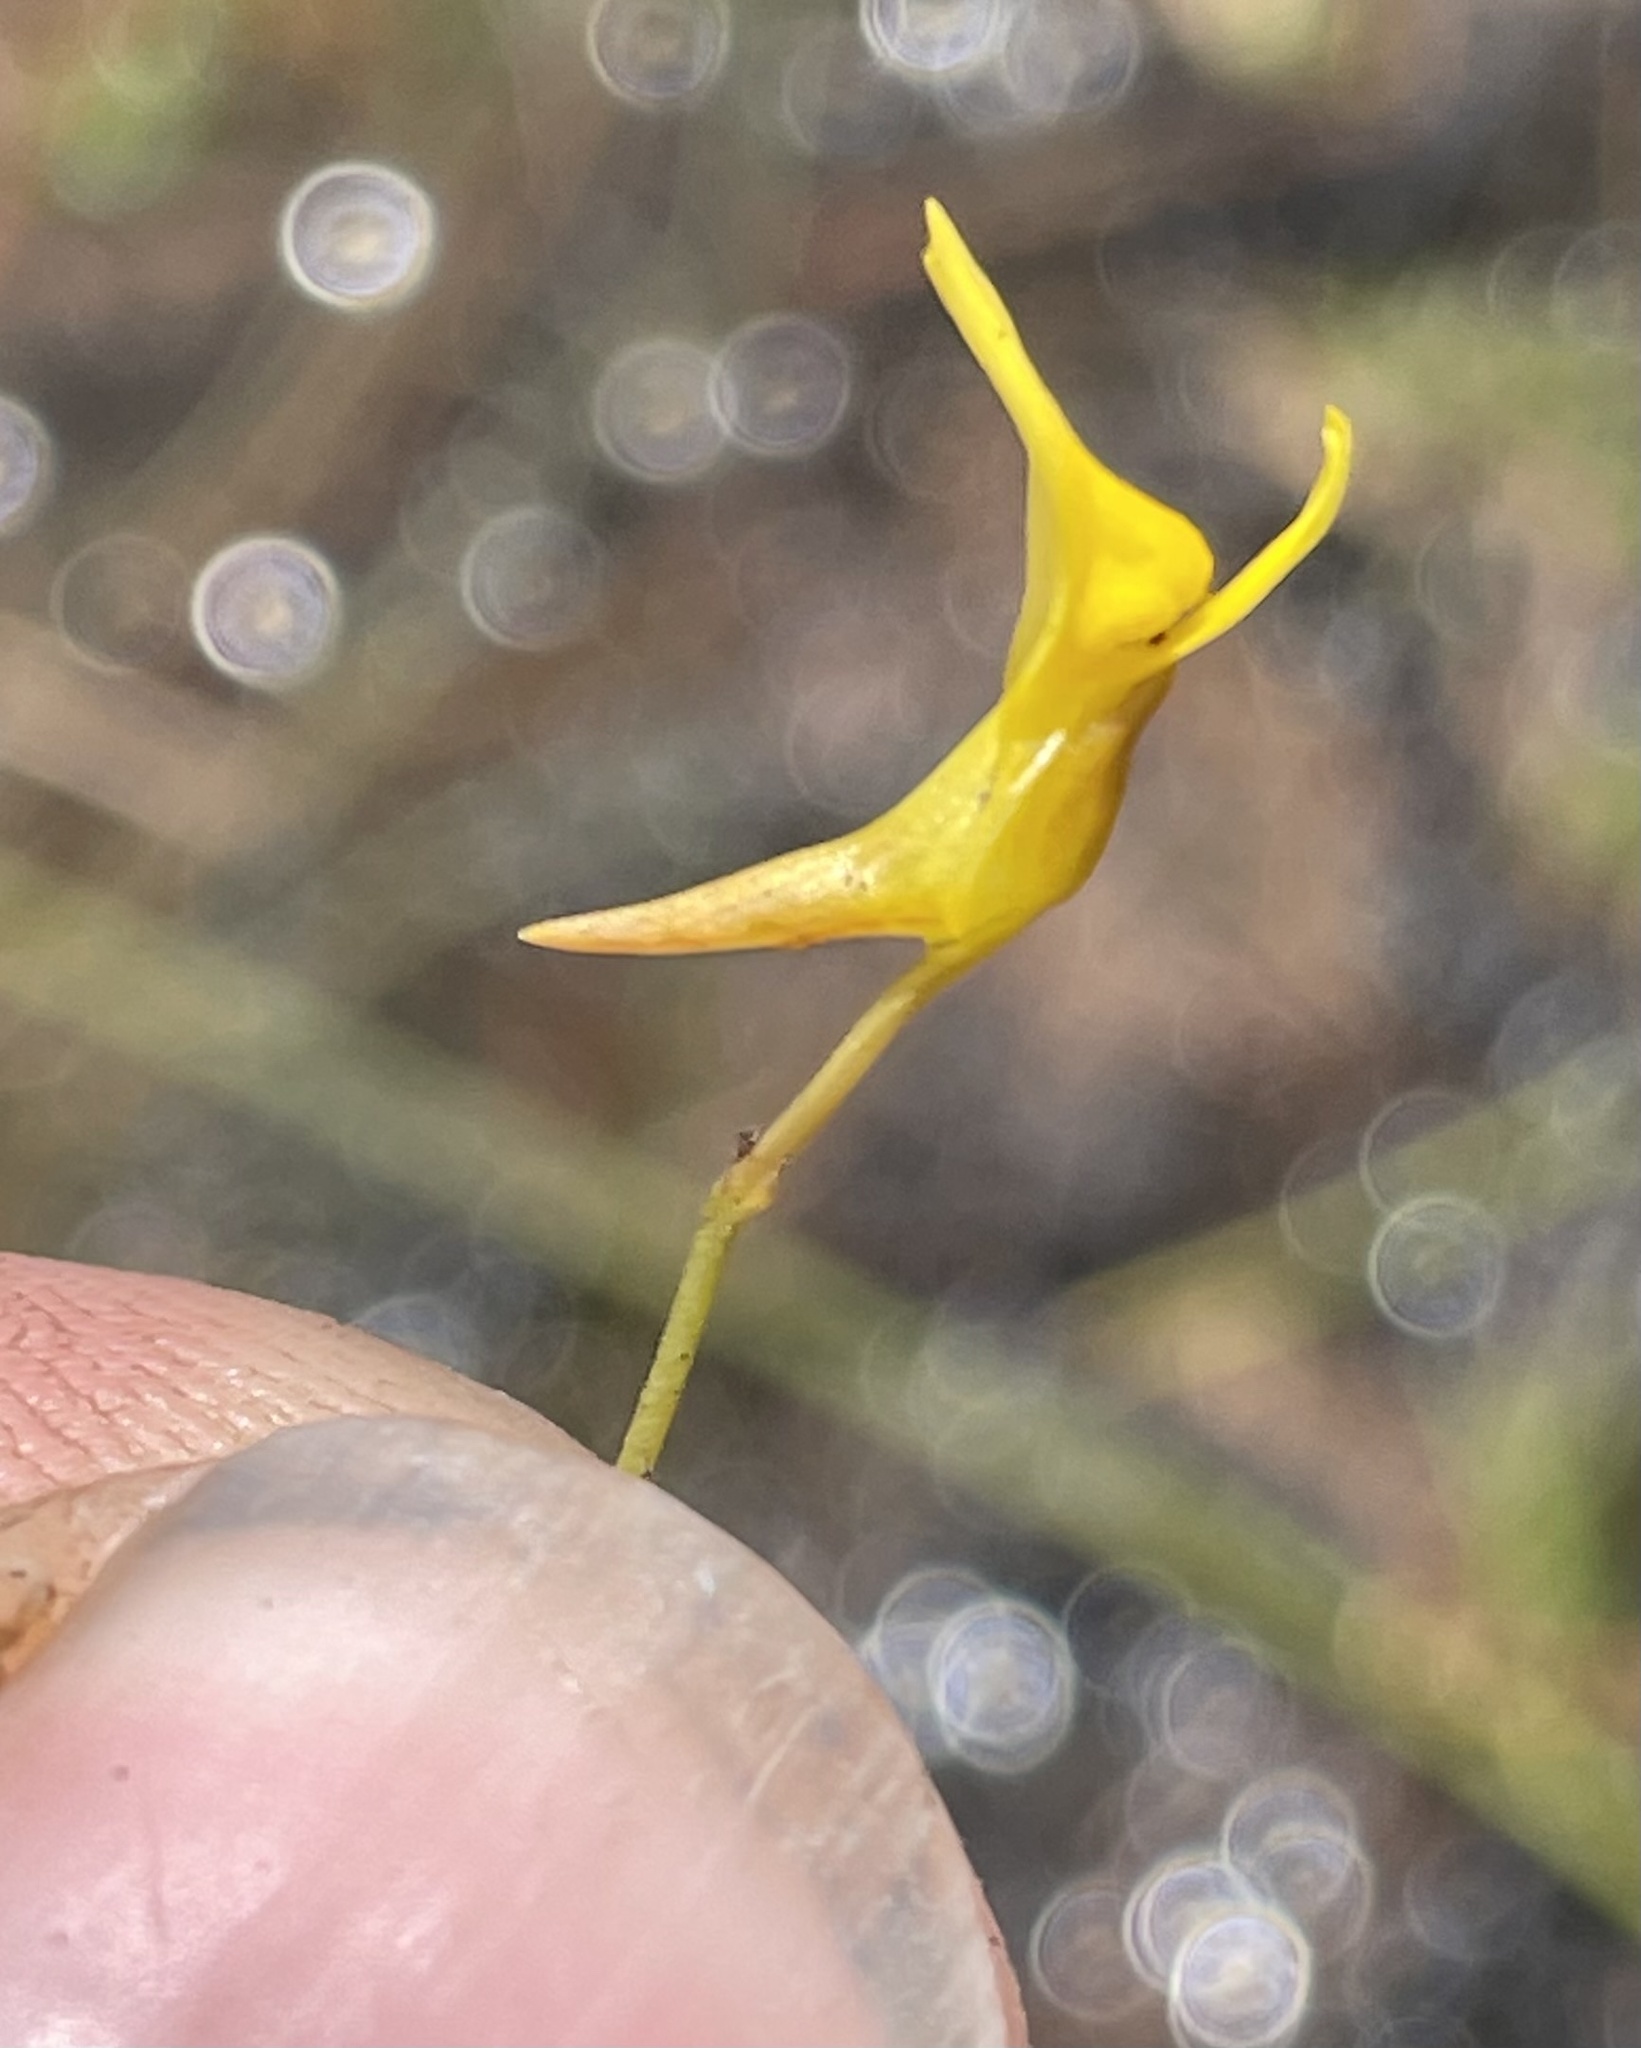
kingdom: Plantae
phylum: Tracheophyta
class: Magnoliopsida
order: Lamiales
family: Lentibulariaceae
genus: Utricularia
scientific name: Utricularia scandens
